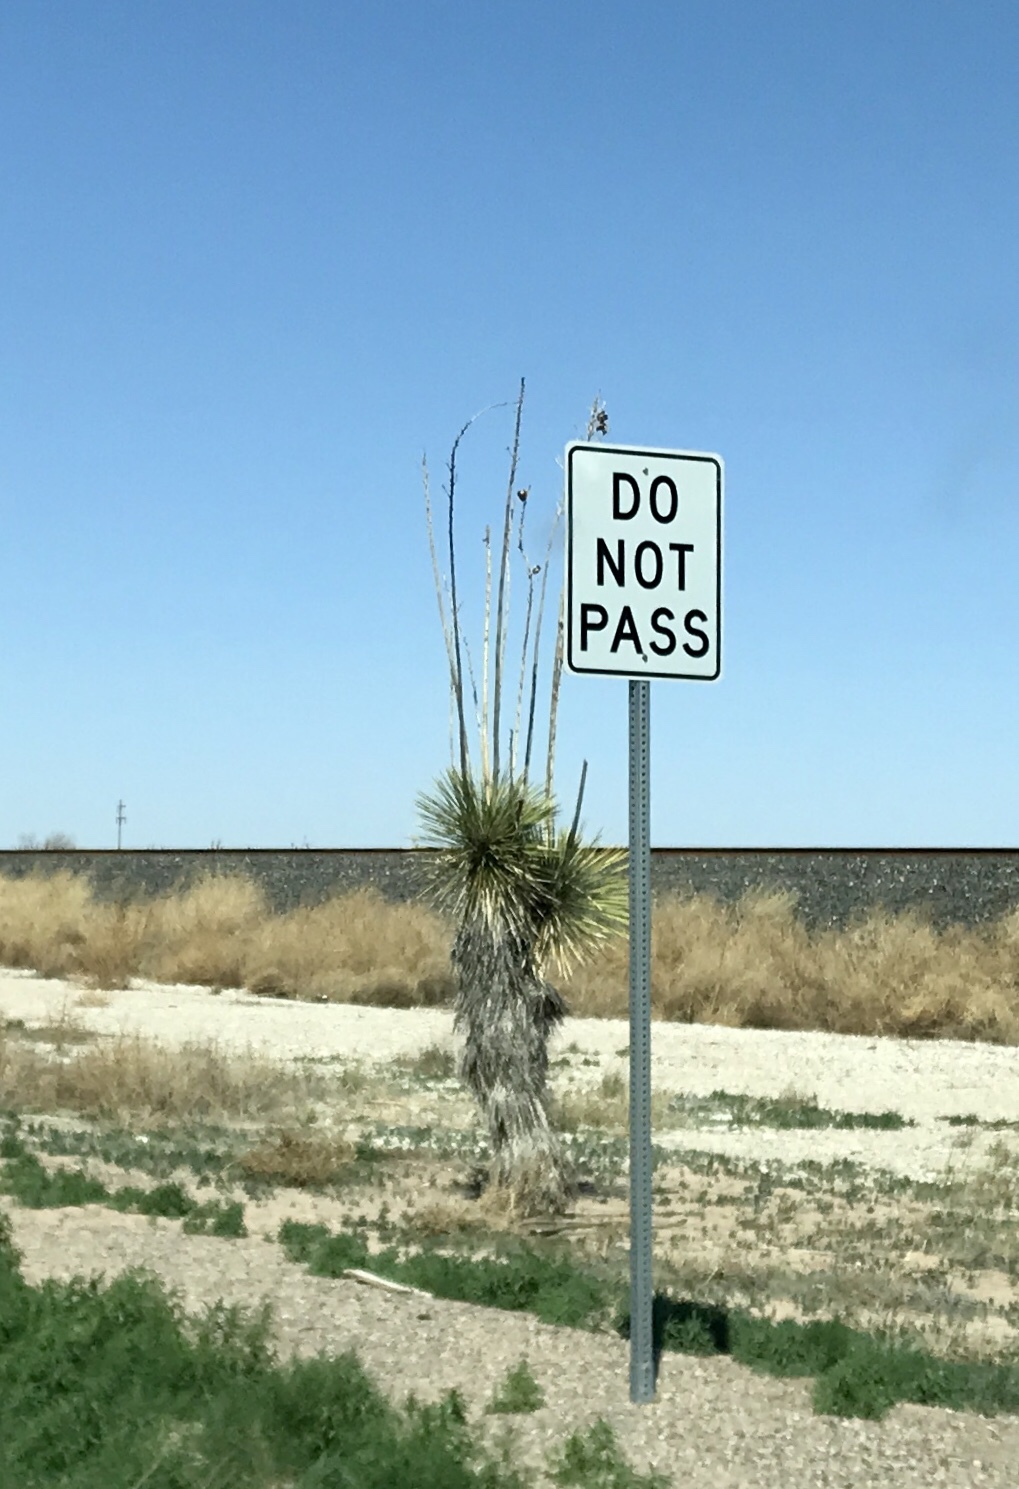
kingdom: Plantae
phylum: Tracheophyta
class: Liliopsida
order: Asparagales
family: Asparagaceae
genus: Yucca
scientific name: Yucca elata
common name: Palmella
